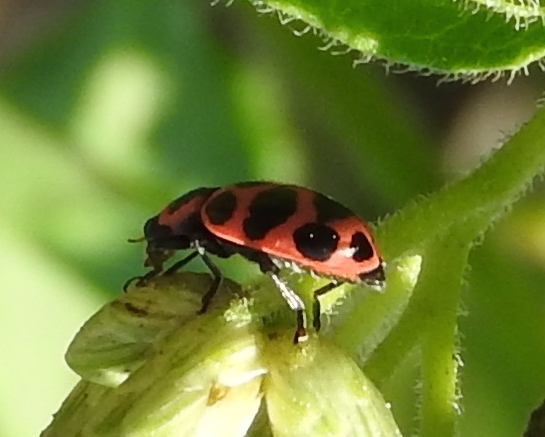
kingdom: Animalia
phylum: Arthropoda
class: Insecta
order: Coleoptera
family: Coccinellidae
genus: Coleomegilla
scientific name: Coleomegilla maculata
